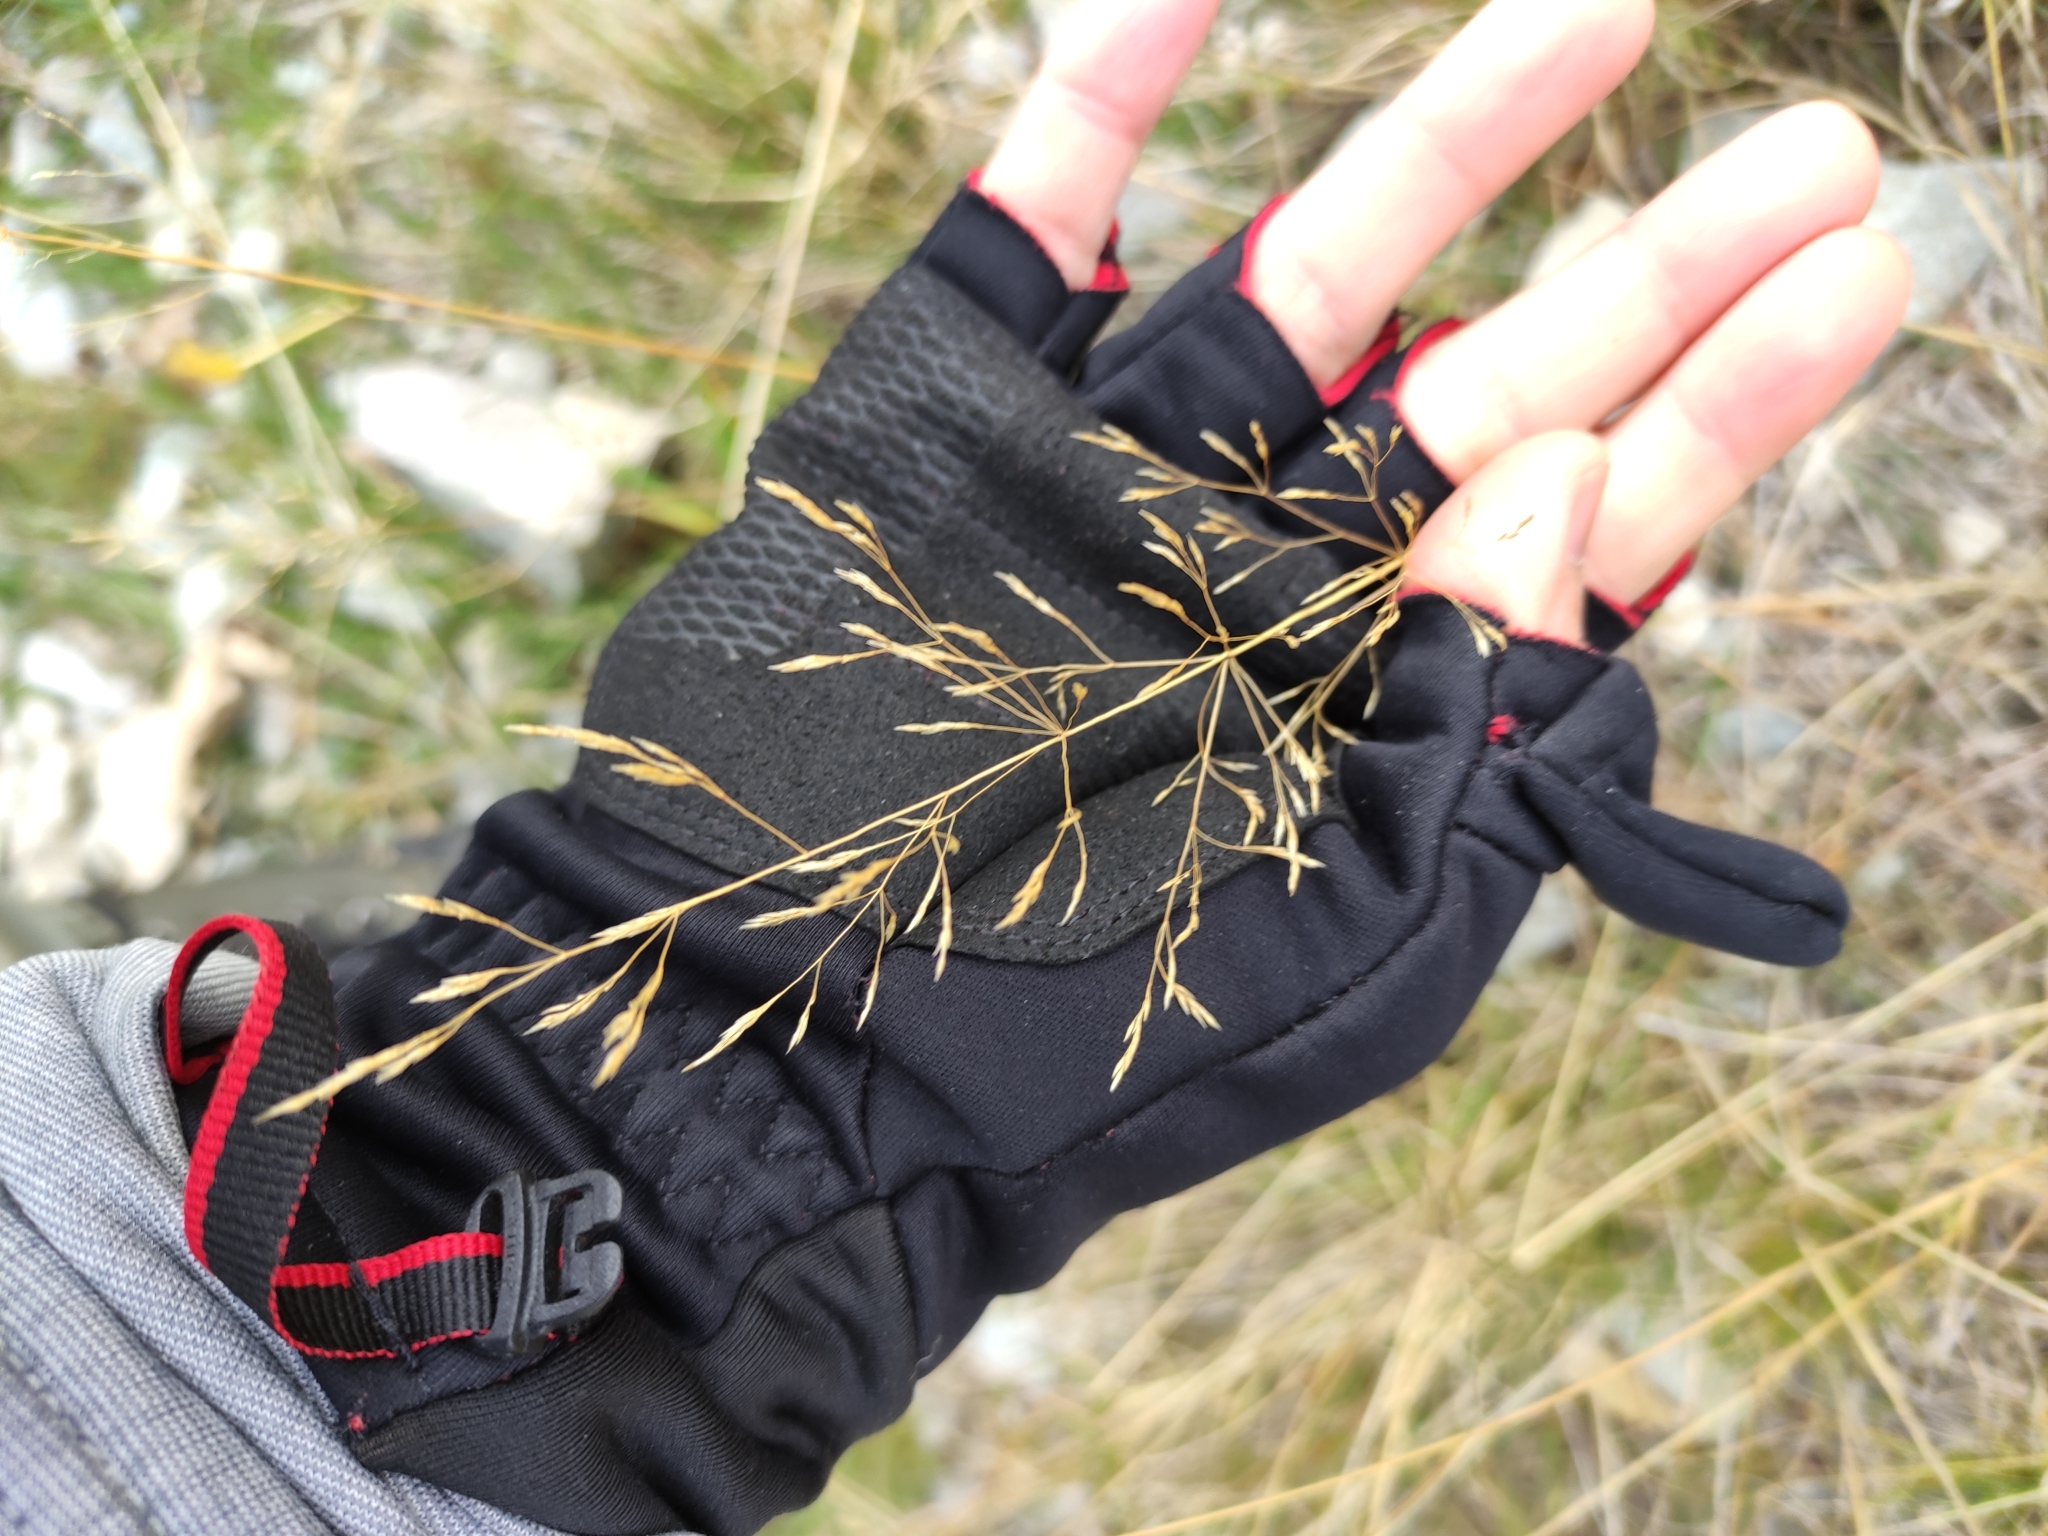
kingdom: Plantae
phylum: Tracheophyta
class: Liliopsida
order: Poales
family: Poaceae
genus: Agrostis
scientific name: Agrostis capillaris
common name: Colonial bentgrass
